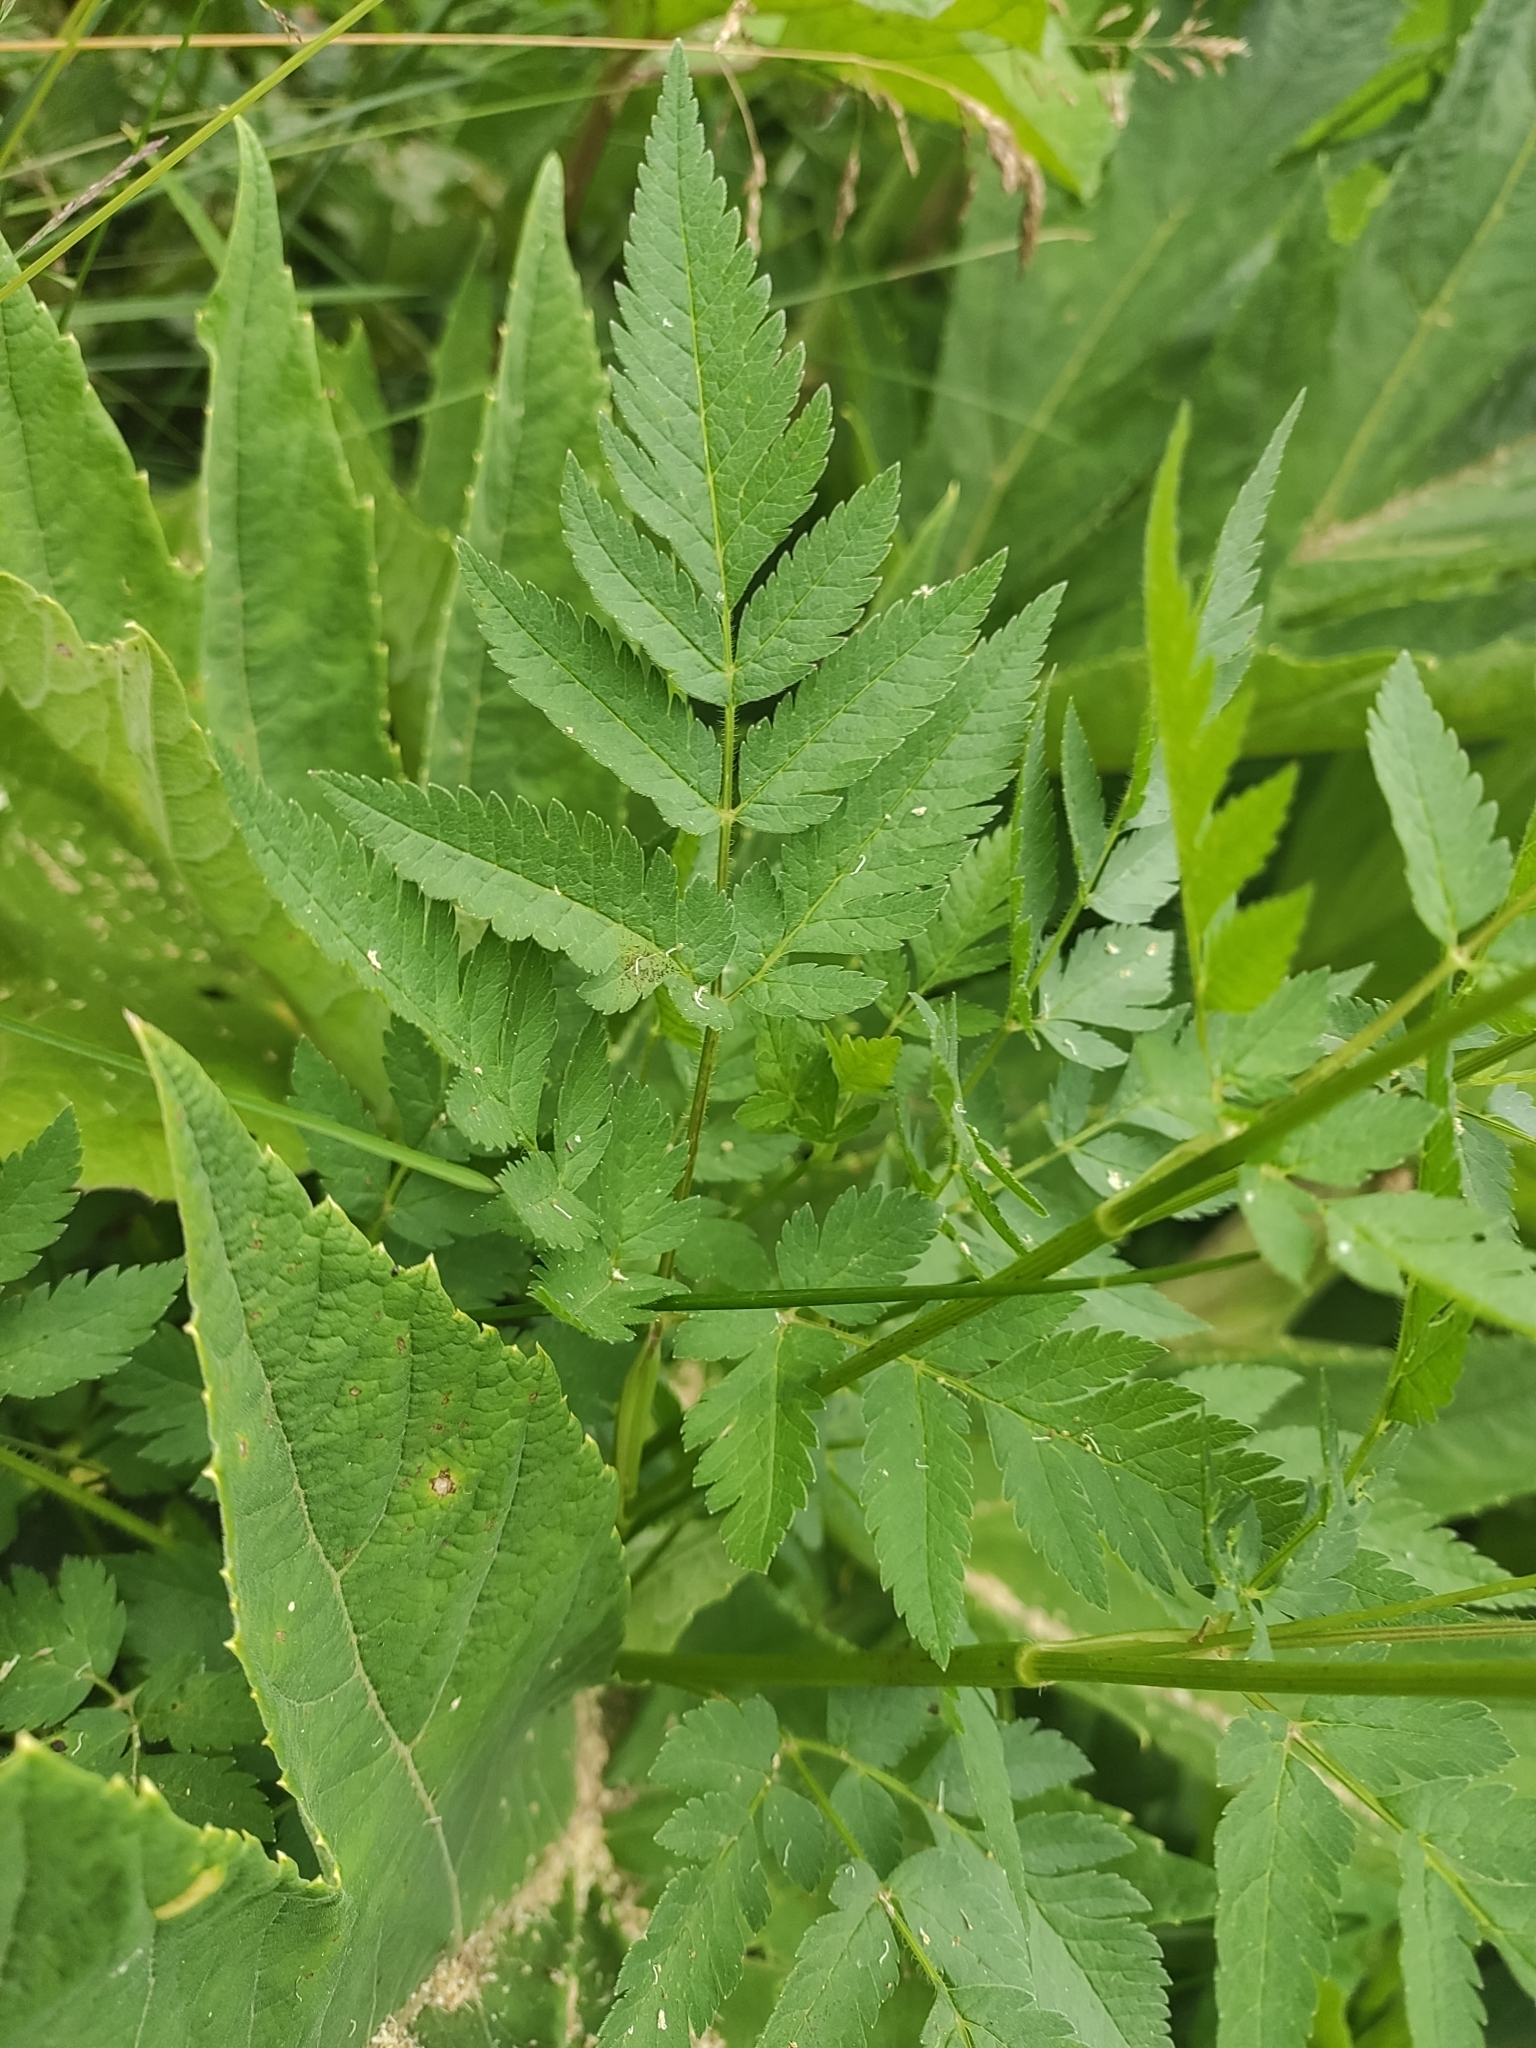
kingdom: Plantae
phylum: Tracheophyta
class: Magnoliopsida
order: Apiales
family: Apiaceae
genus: Chaerophyllum
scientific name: Chaerophyllum aureum
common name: Golden chervil
